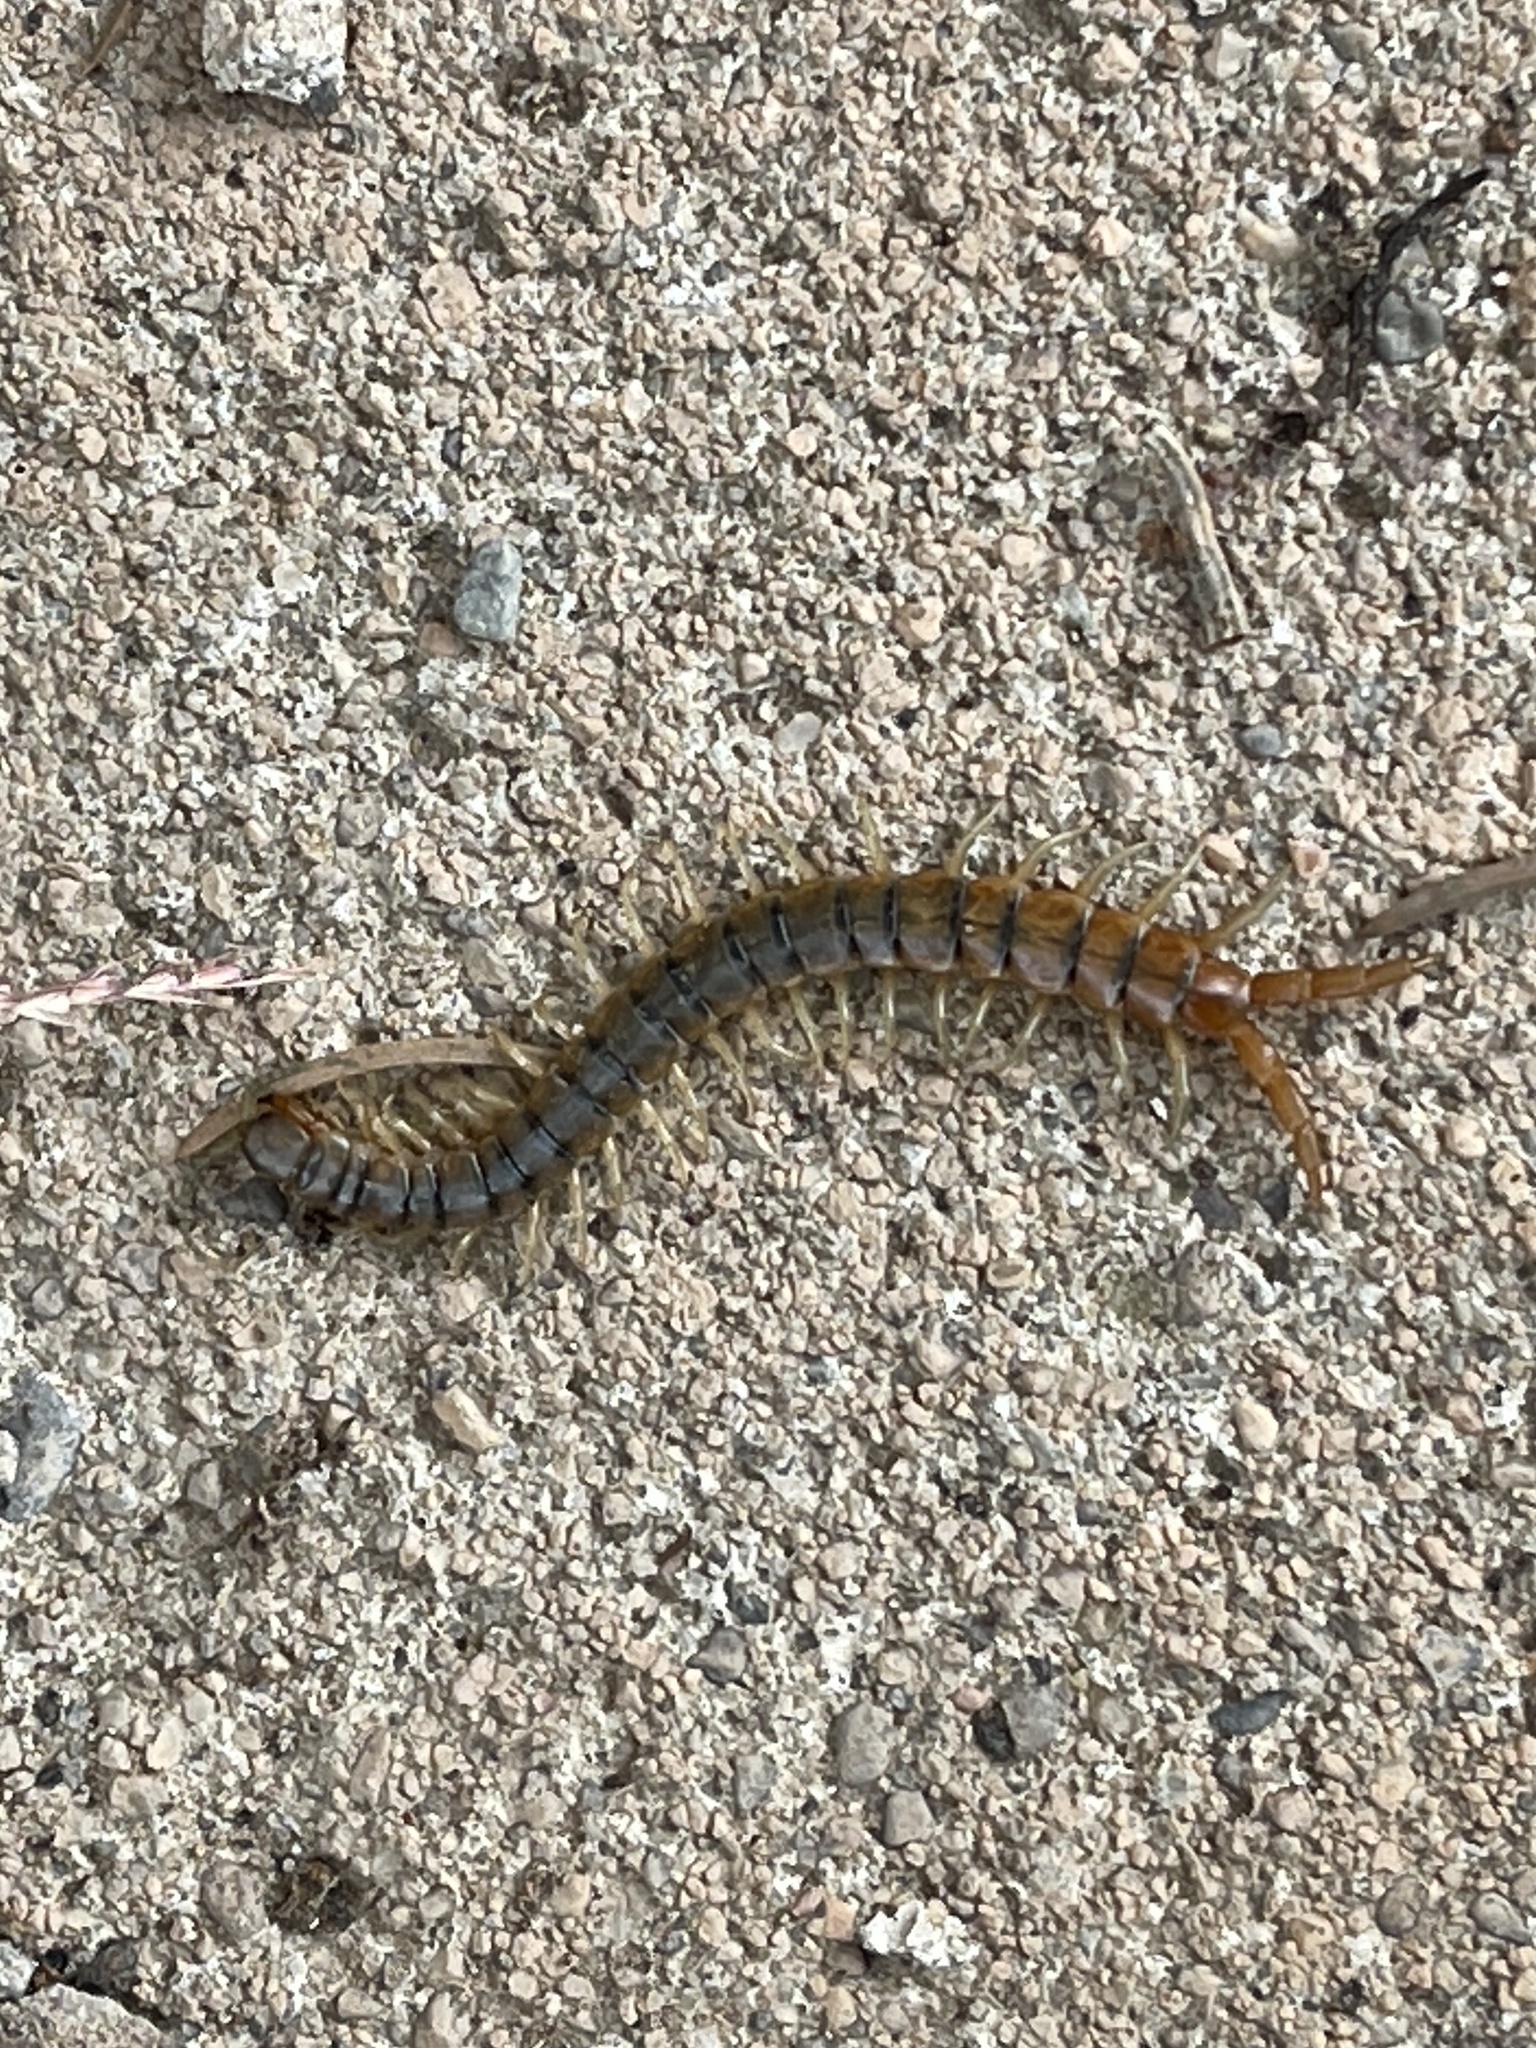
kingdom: Animalia
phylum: Arthropoda
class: Chilopoda
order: Scolopendromorpha
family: Scolopendridae
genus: Scolopendra
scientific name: Scolopendra polymorpha
